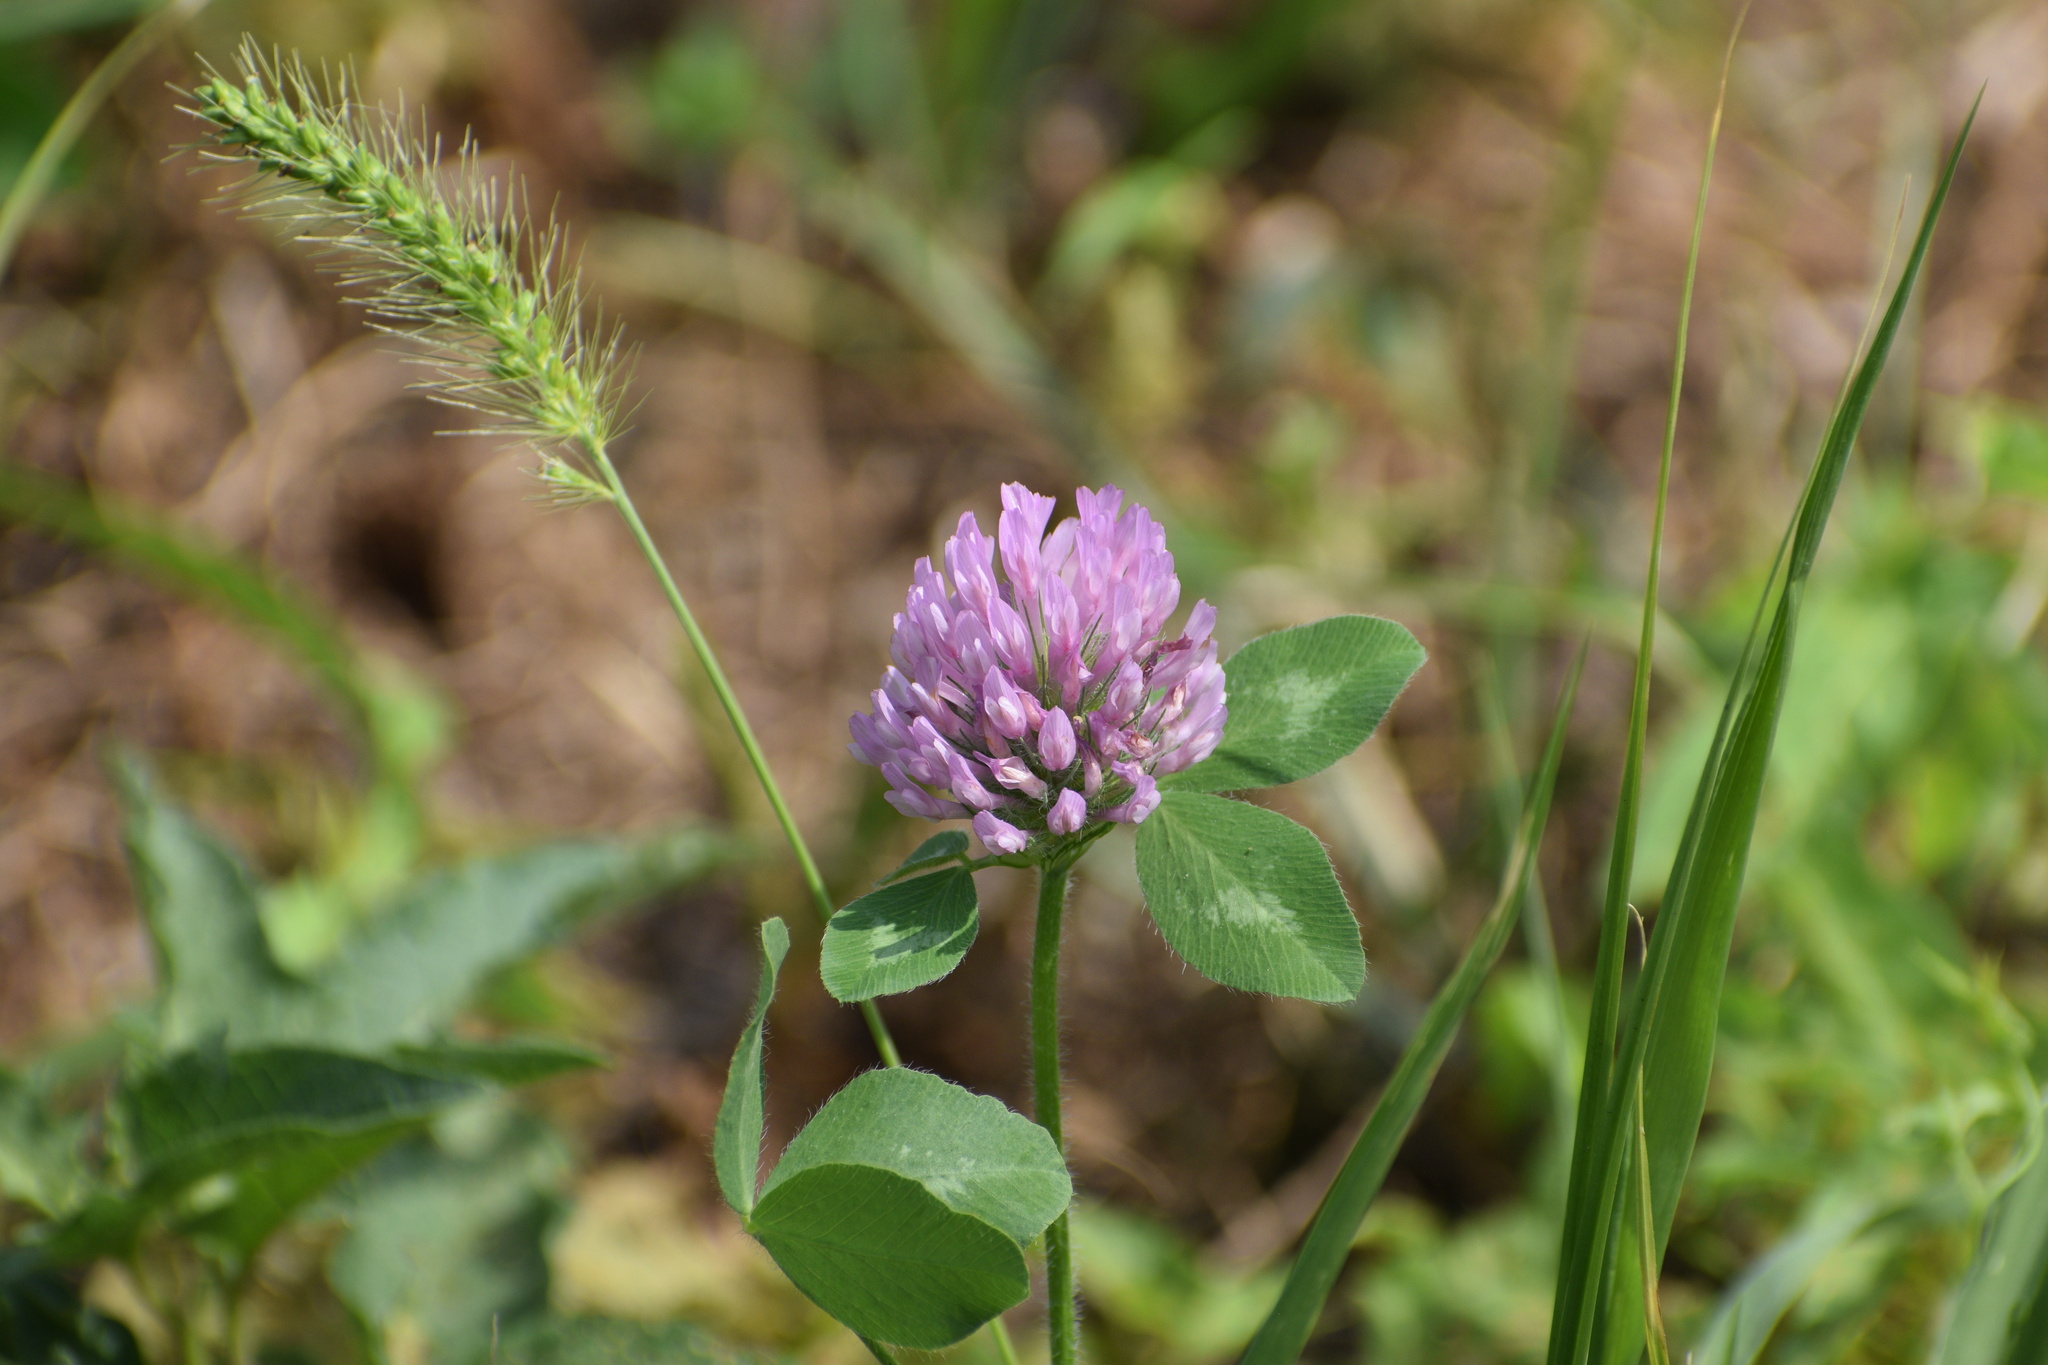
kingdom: Plantae
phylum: Tracheophyta
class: Magnoliopsida
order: Fabales
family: Fabaceae
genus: Trifolium
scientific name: Trifolium pratense
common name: Red clover
